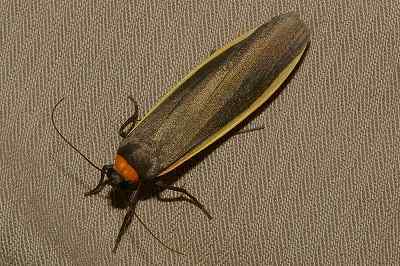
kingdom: Animalia
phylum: Arthropoda
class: Insecta
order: Lepidoptera
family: Erebidae
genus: Ghoria
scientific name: Ghoria collitoides
